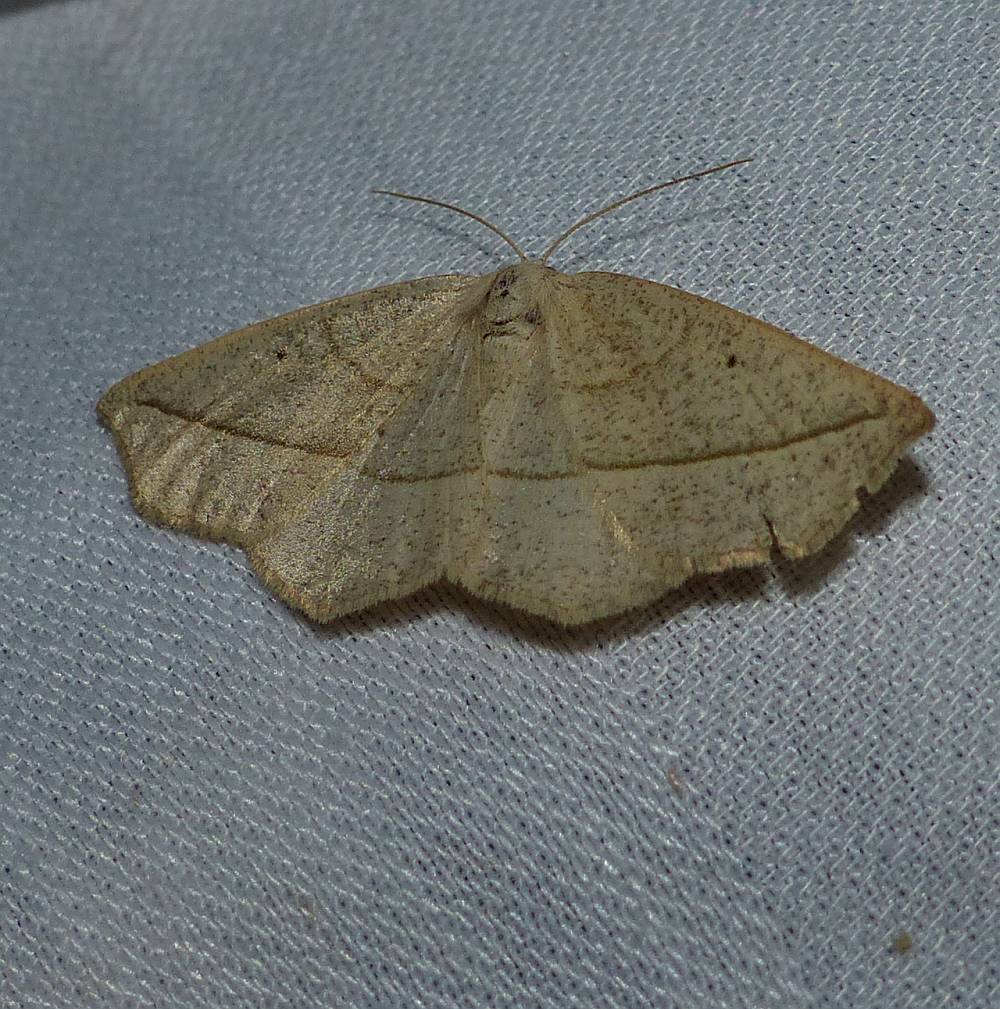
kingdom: Animalia
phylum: Arthropoda
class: Insecta
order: Lepidoptera
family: Geometridae
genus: Eusarca
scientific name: Eusarca confusaria
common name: Confused eusarca
